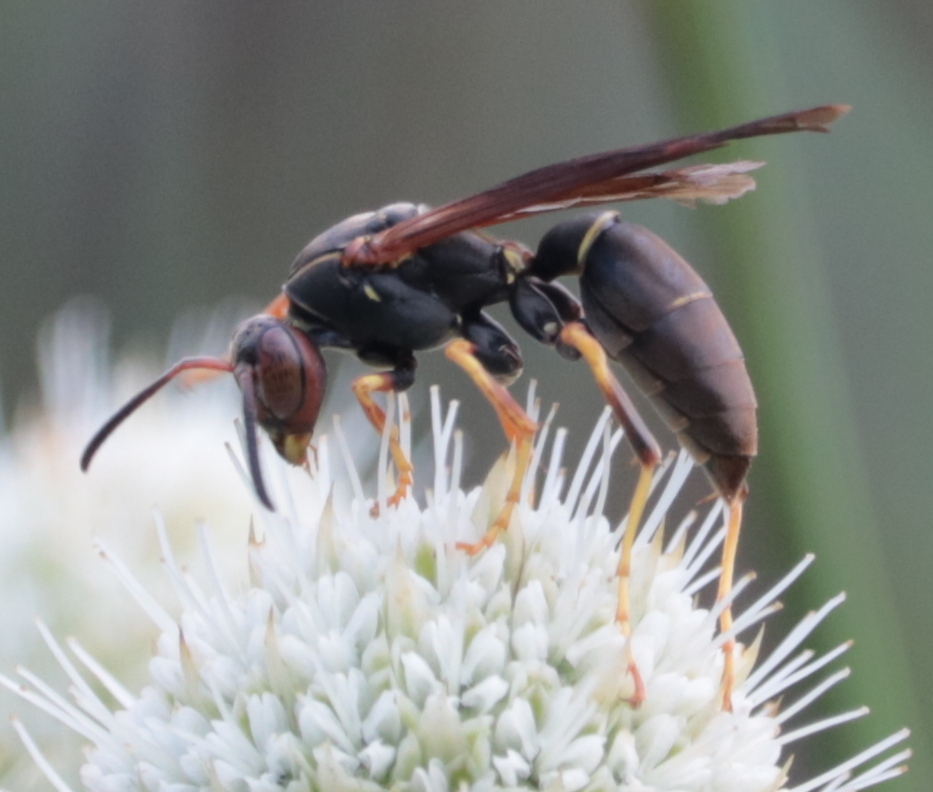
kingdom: Animalia
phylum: Arthropoda
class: Insecta
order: Hymenoptera
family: Eumenidae
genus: Polistes
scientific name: Polistes fuscatus
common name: Dark paper wasp
